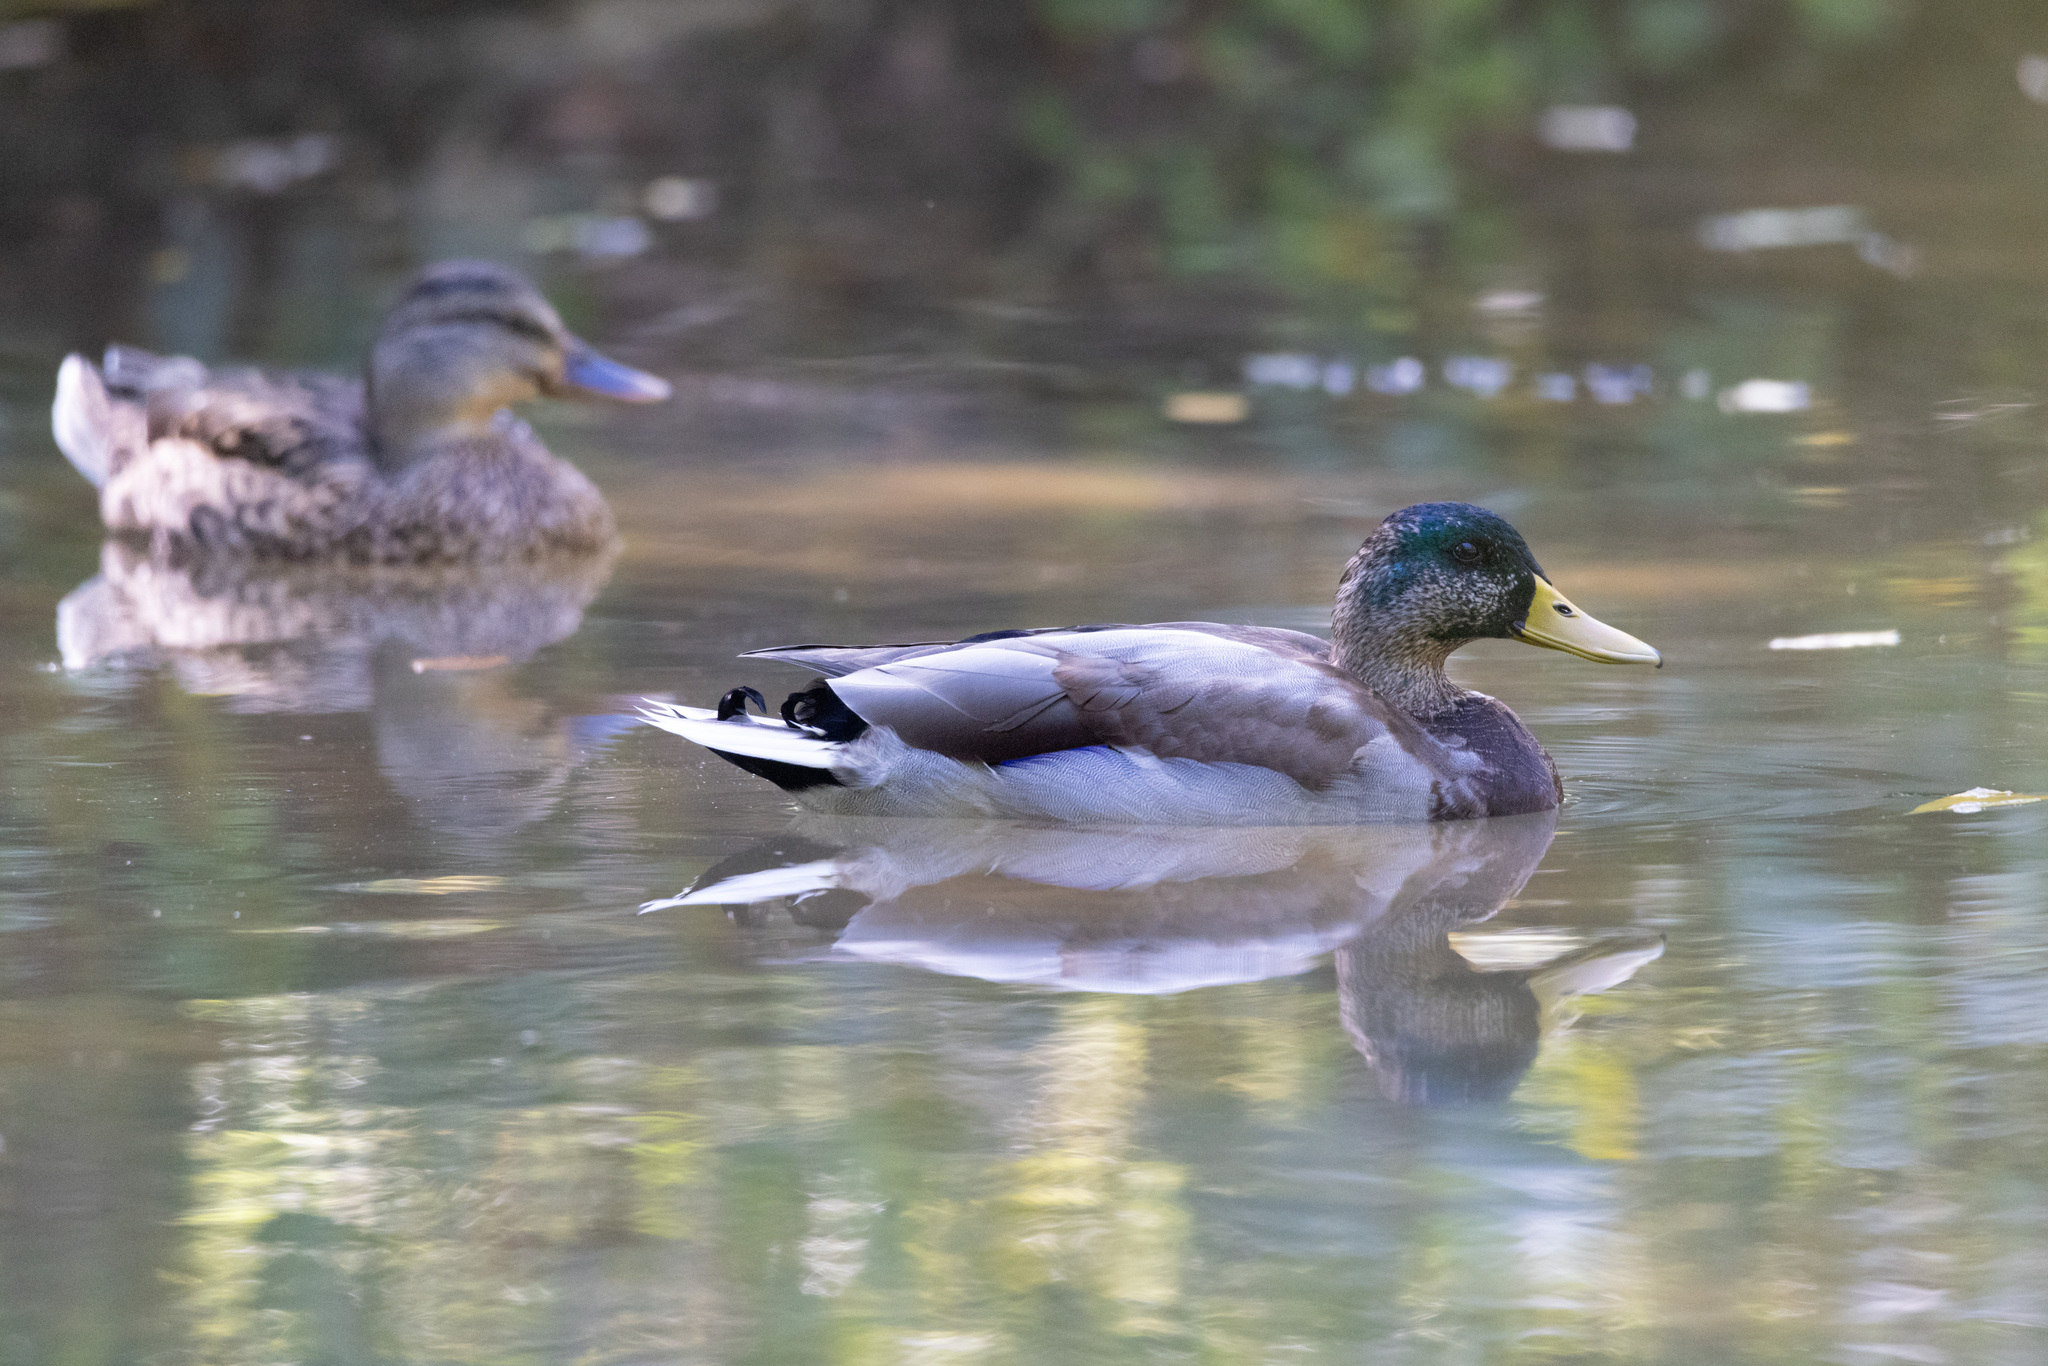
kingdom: Animalia
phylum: Chordata
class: Aves
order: Anseriformes
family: Anatidae
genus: Anas
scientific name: Anas platyrhynchos
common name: Mallard
